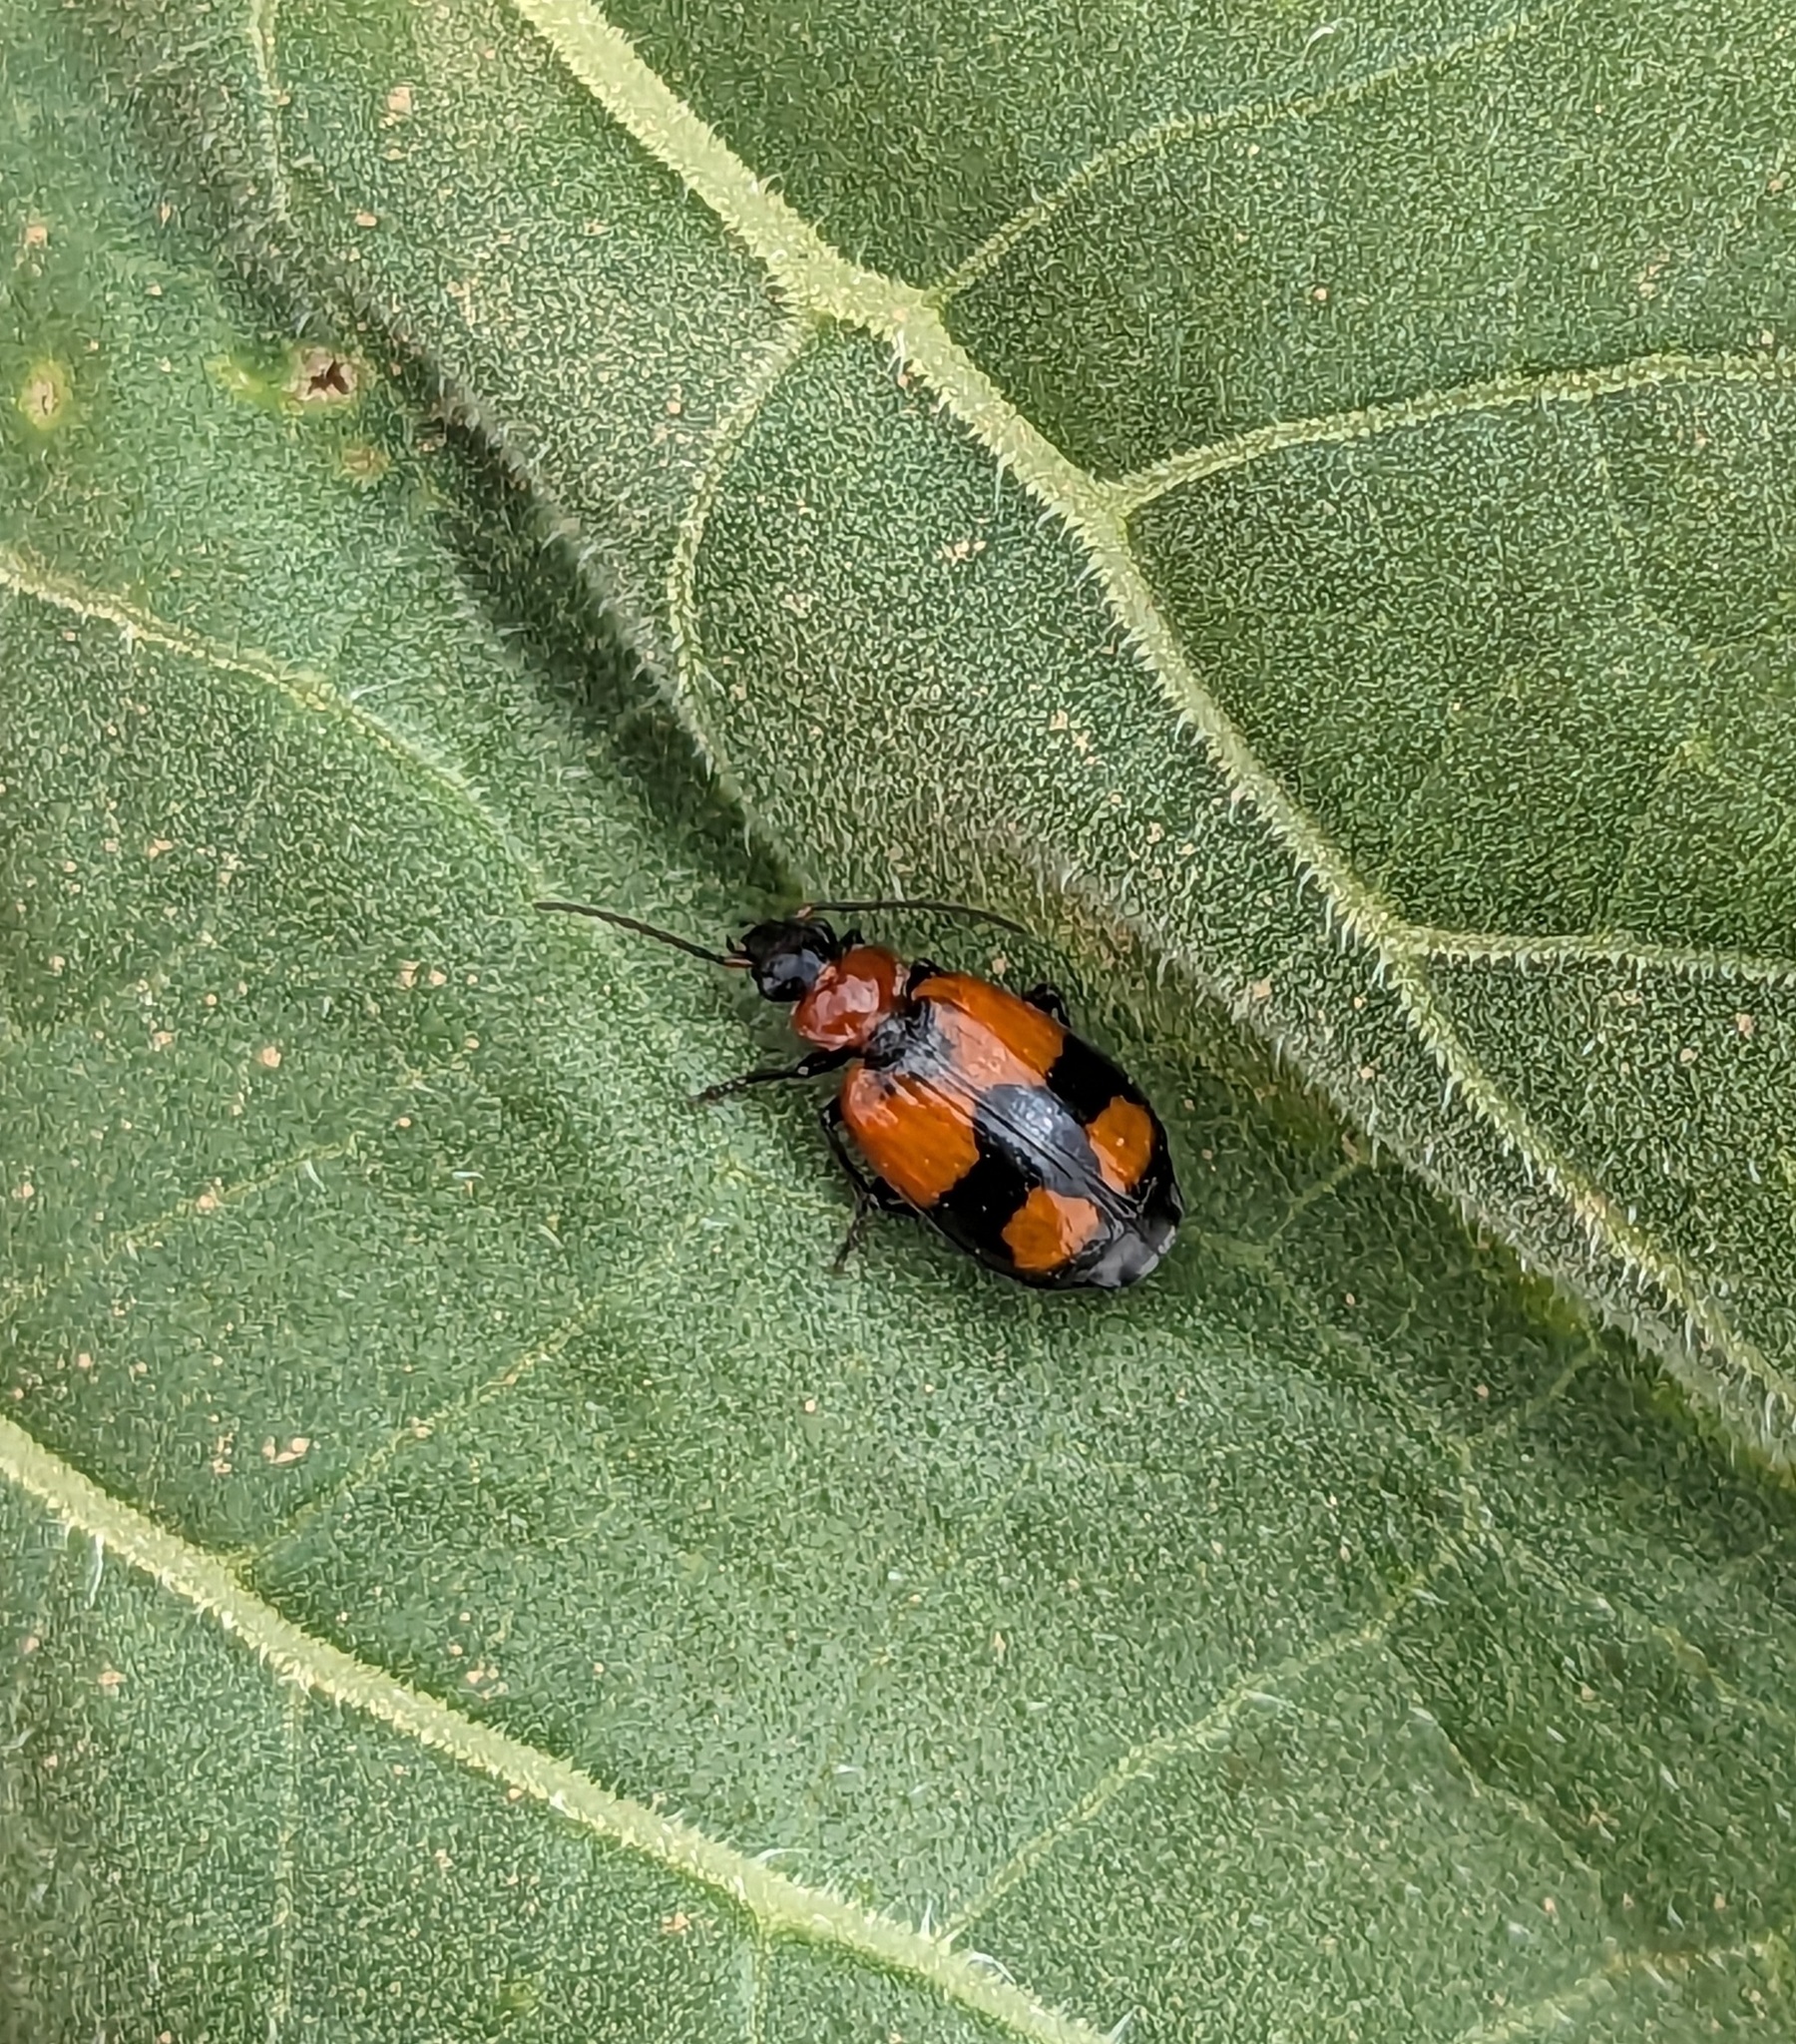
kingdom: Animalia
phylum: Arthropoda
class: Insecta
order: Coleoptera
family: Carabidae
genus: Lebia
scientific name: Lebia cruxminor
